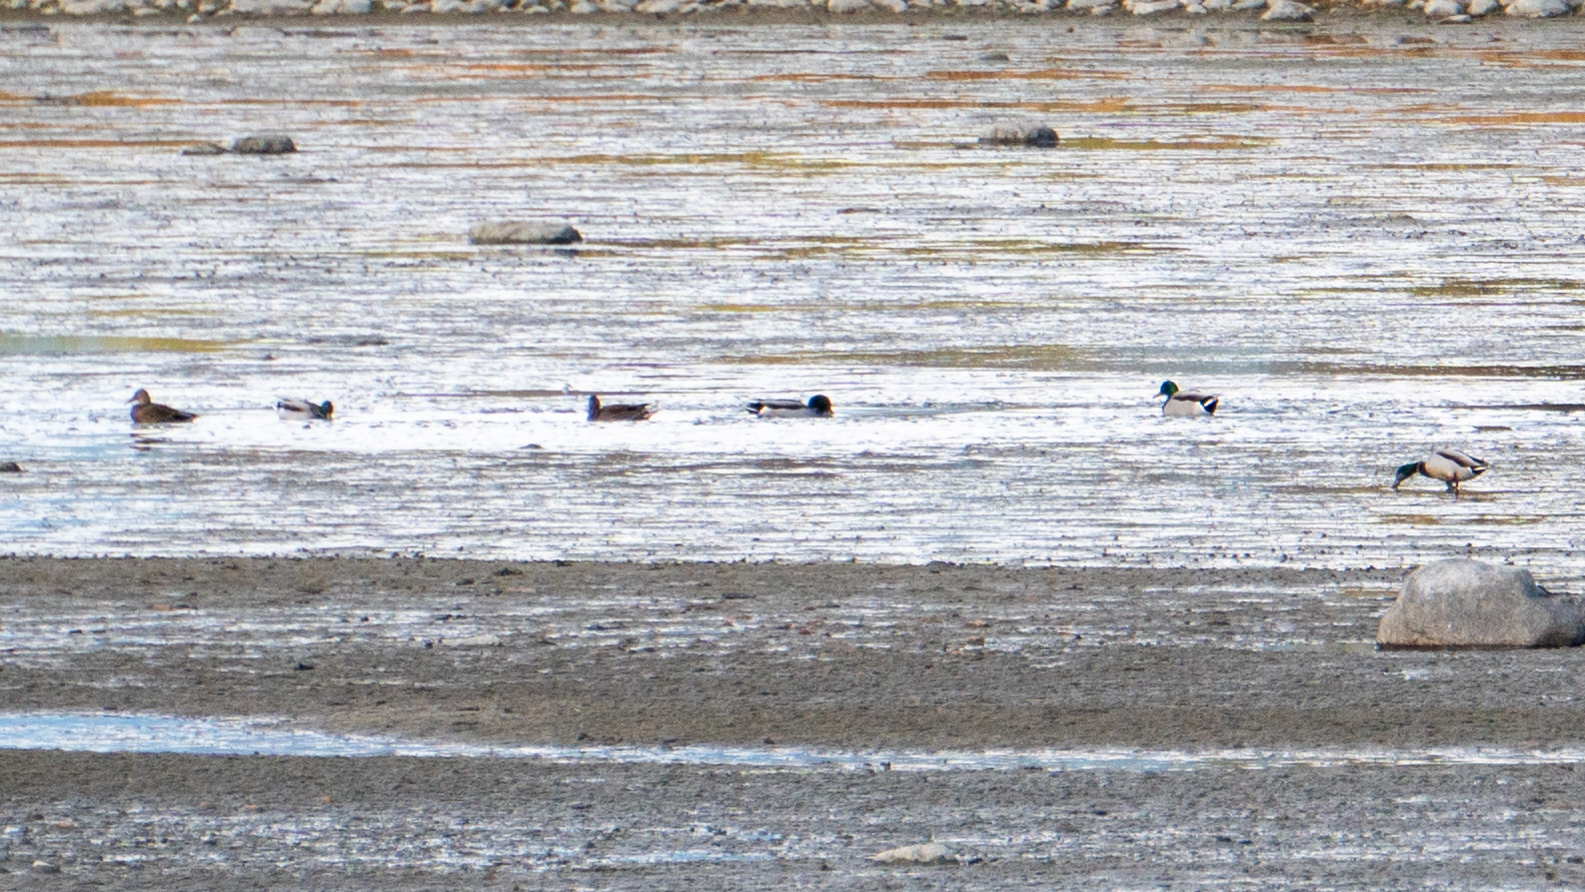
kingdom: Animalia
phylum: Chordata
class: Aves
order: Anseriformes
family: Anatidae
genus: Anas
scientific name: Anas platyrhynchos
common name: Mallard
